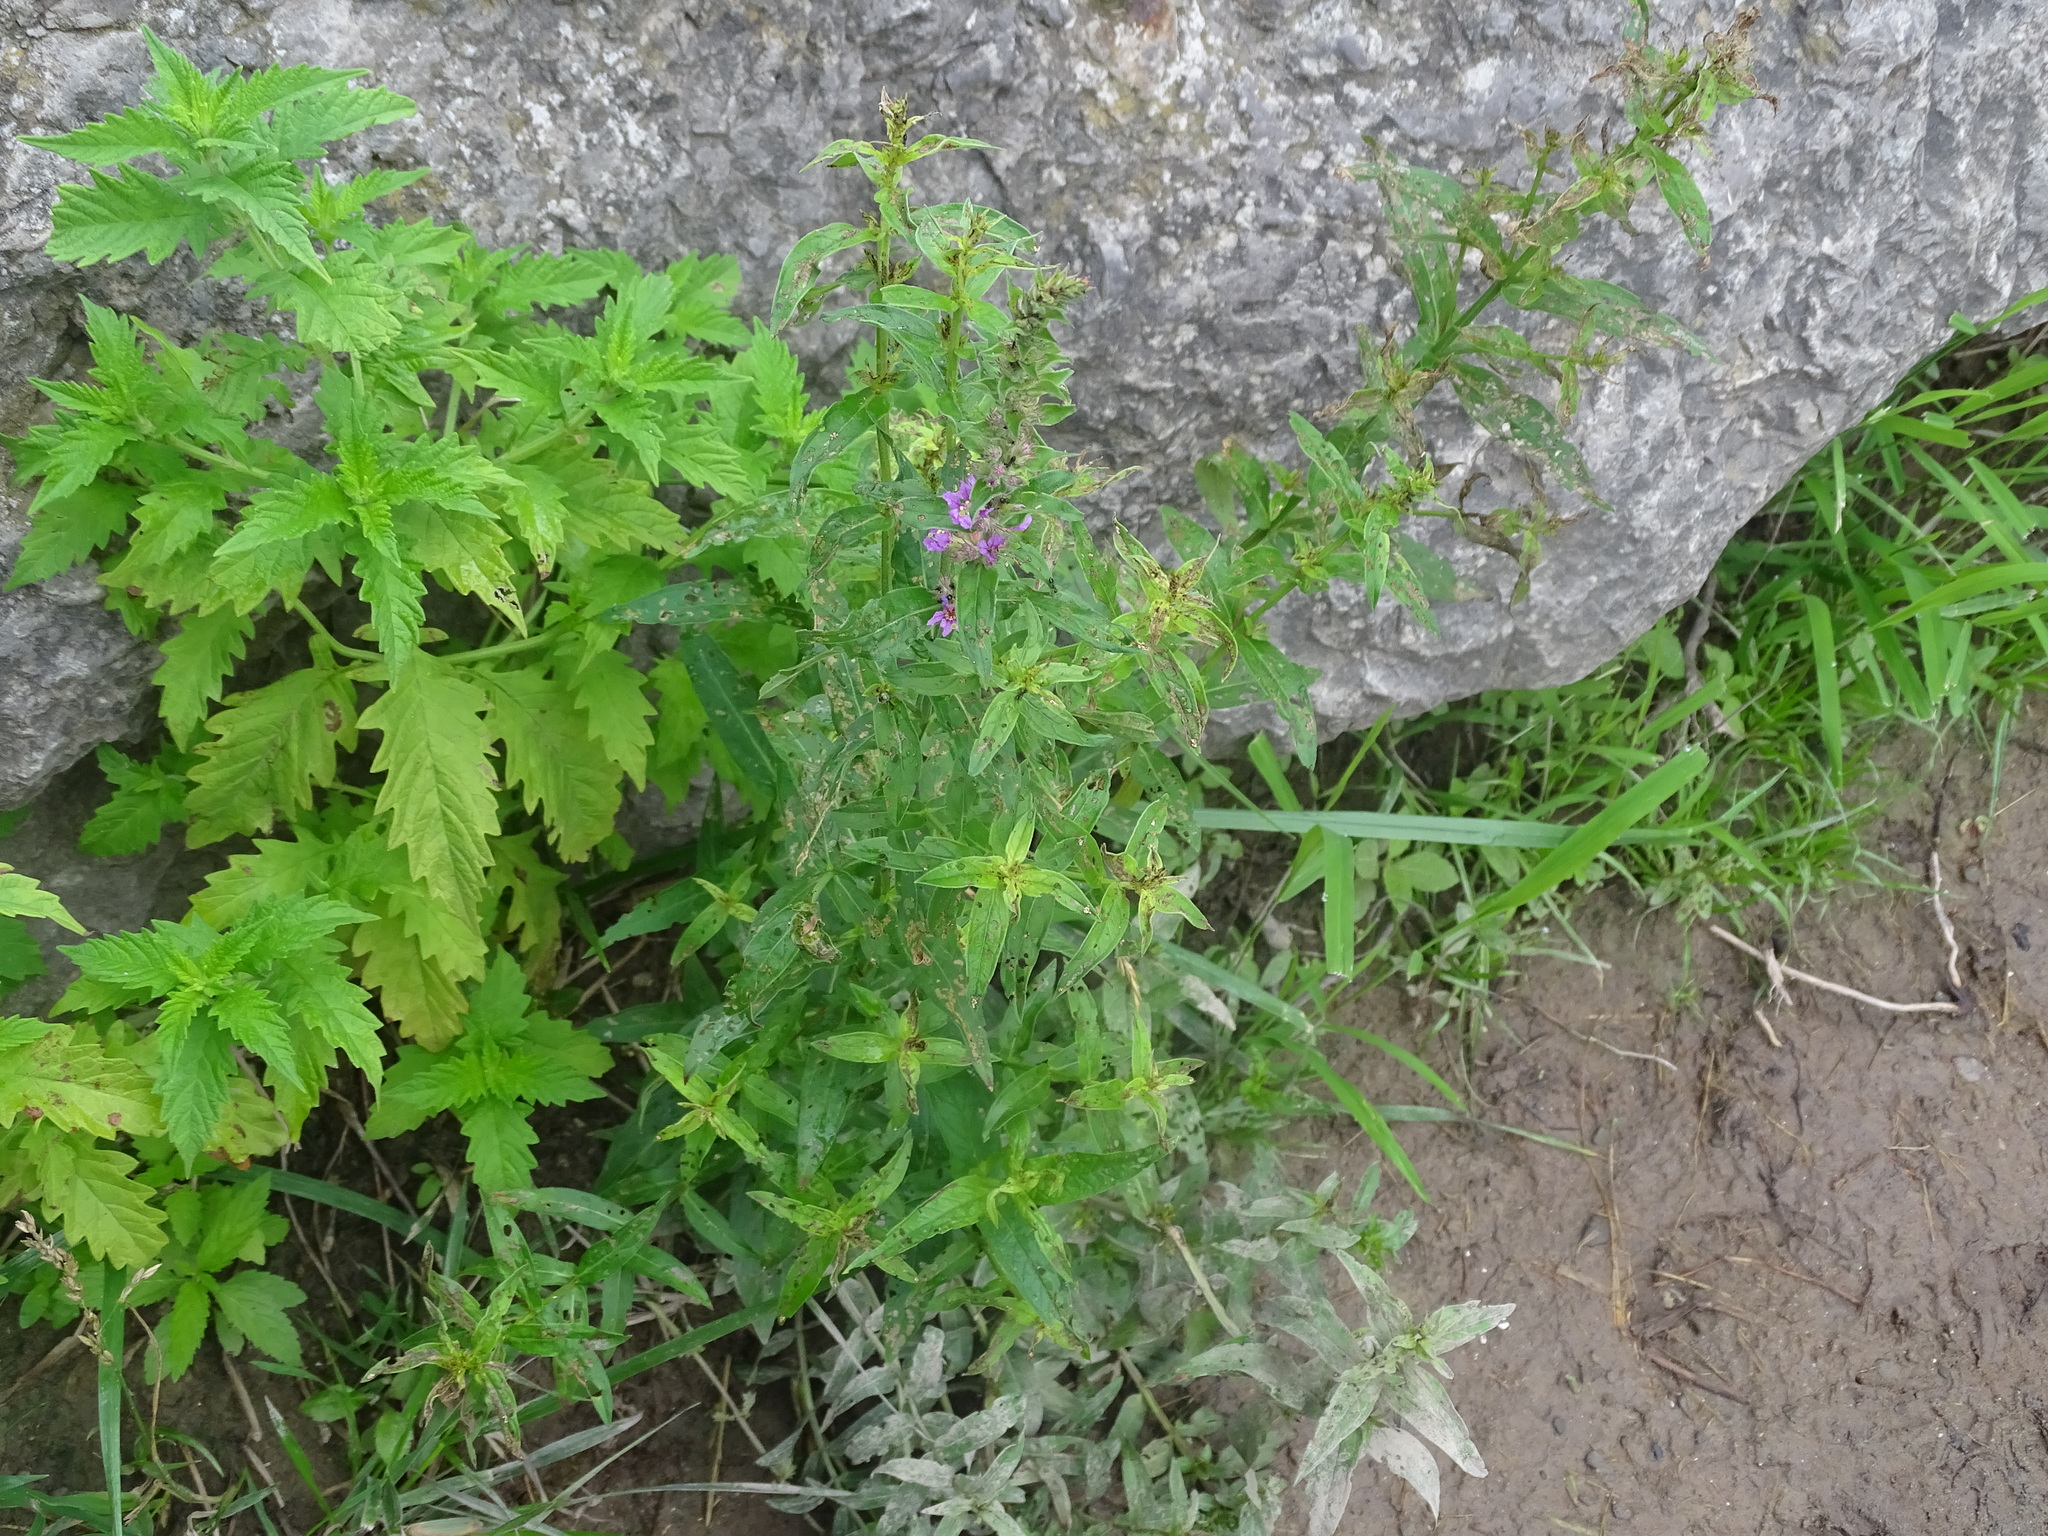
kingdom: Plantae
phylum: Tracheophyta
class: Magnoliopsida
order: Myrtales
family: Lythraceae
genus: Lythrum
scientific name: Lythrum salicaria
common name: Purple loosestrife
